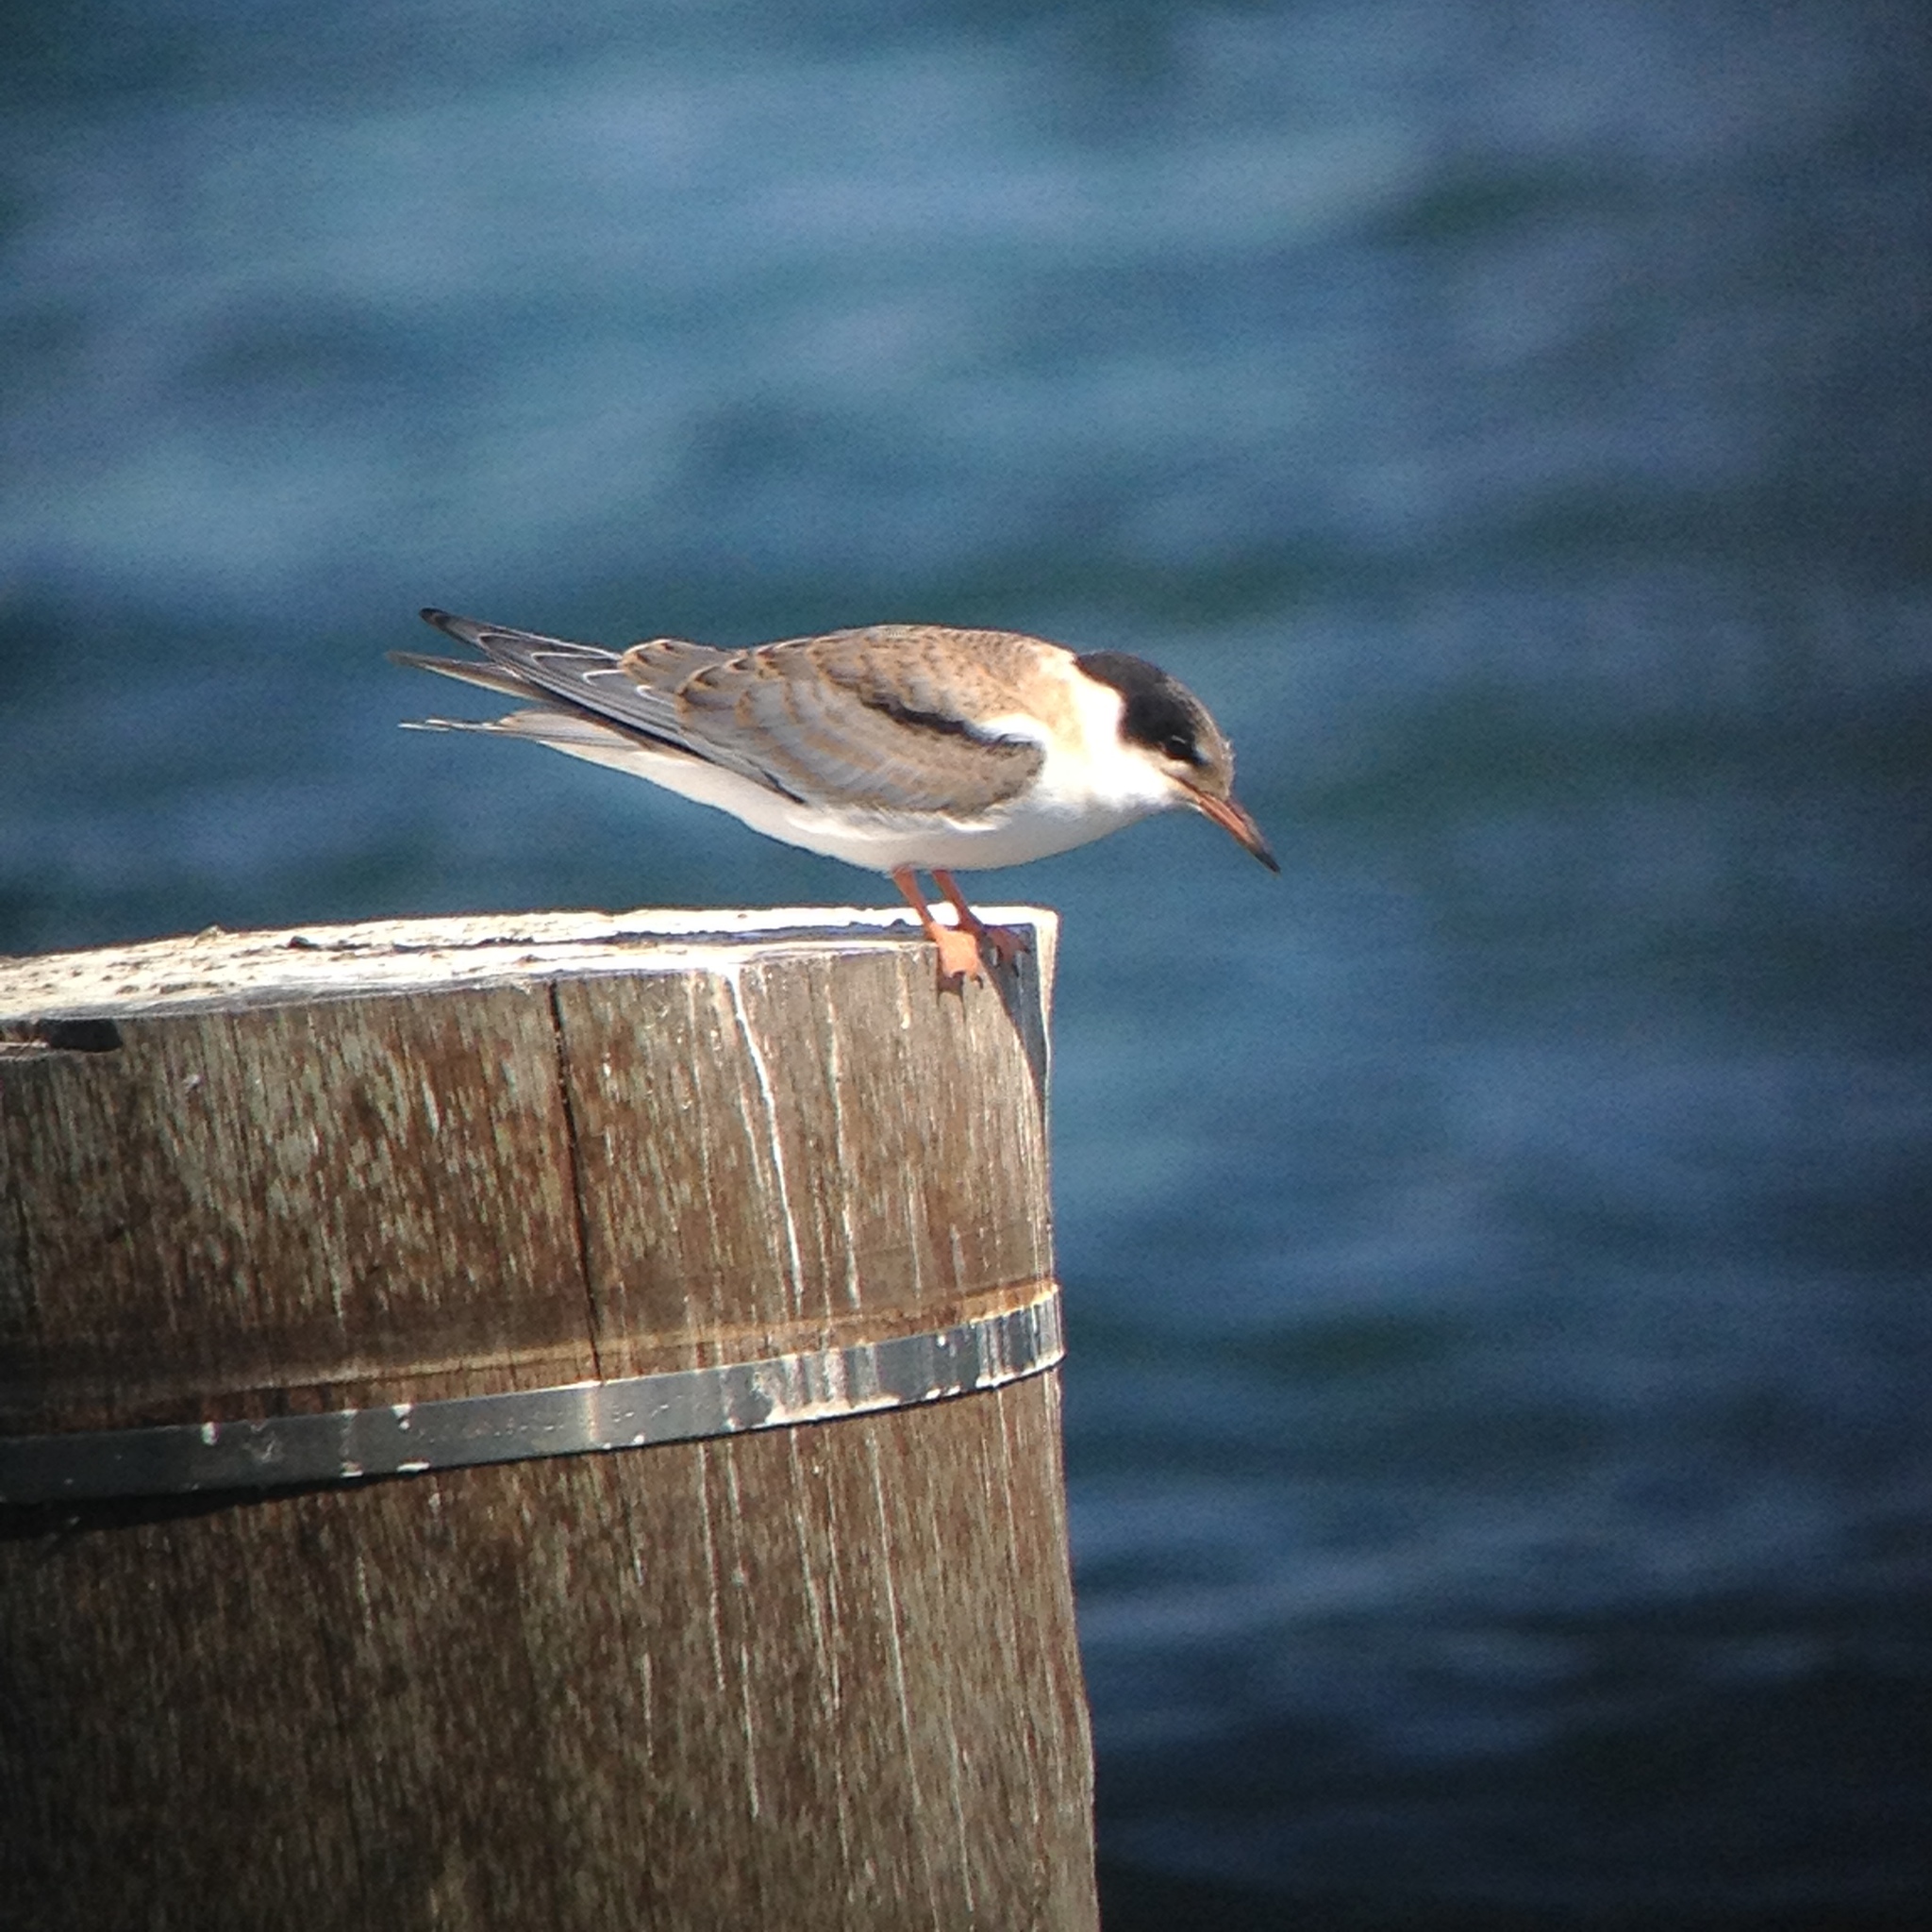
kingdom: Animalia
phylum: Chordata
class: Aves
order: Charadriiformes
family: Laridae
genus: Sterna
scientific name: Sterna hirundo
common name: Common tern
